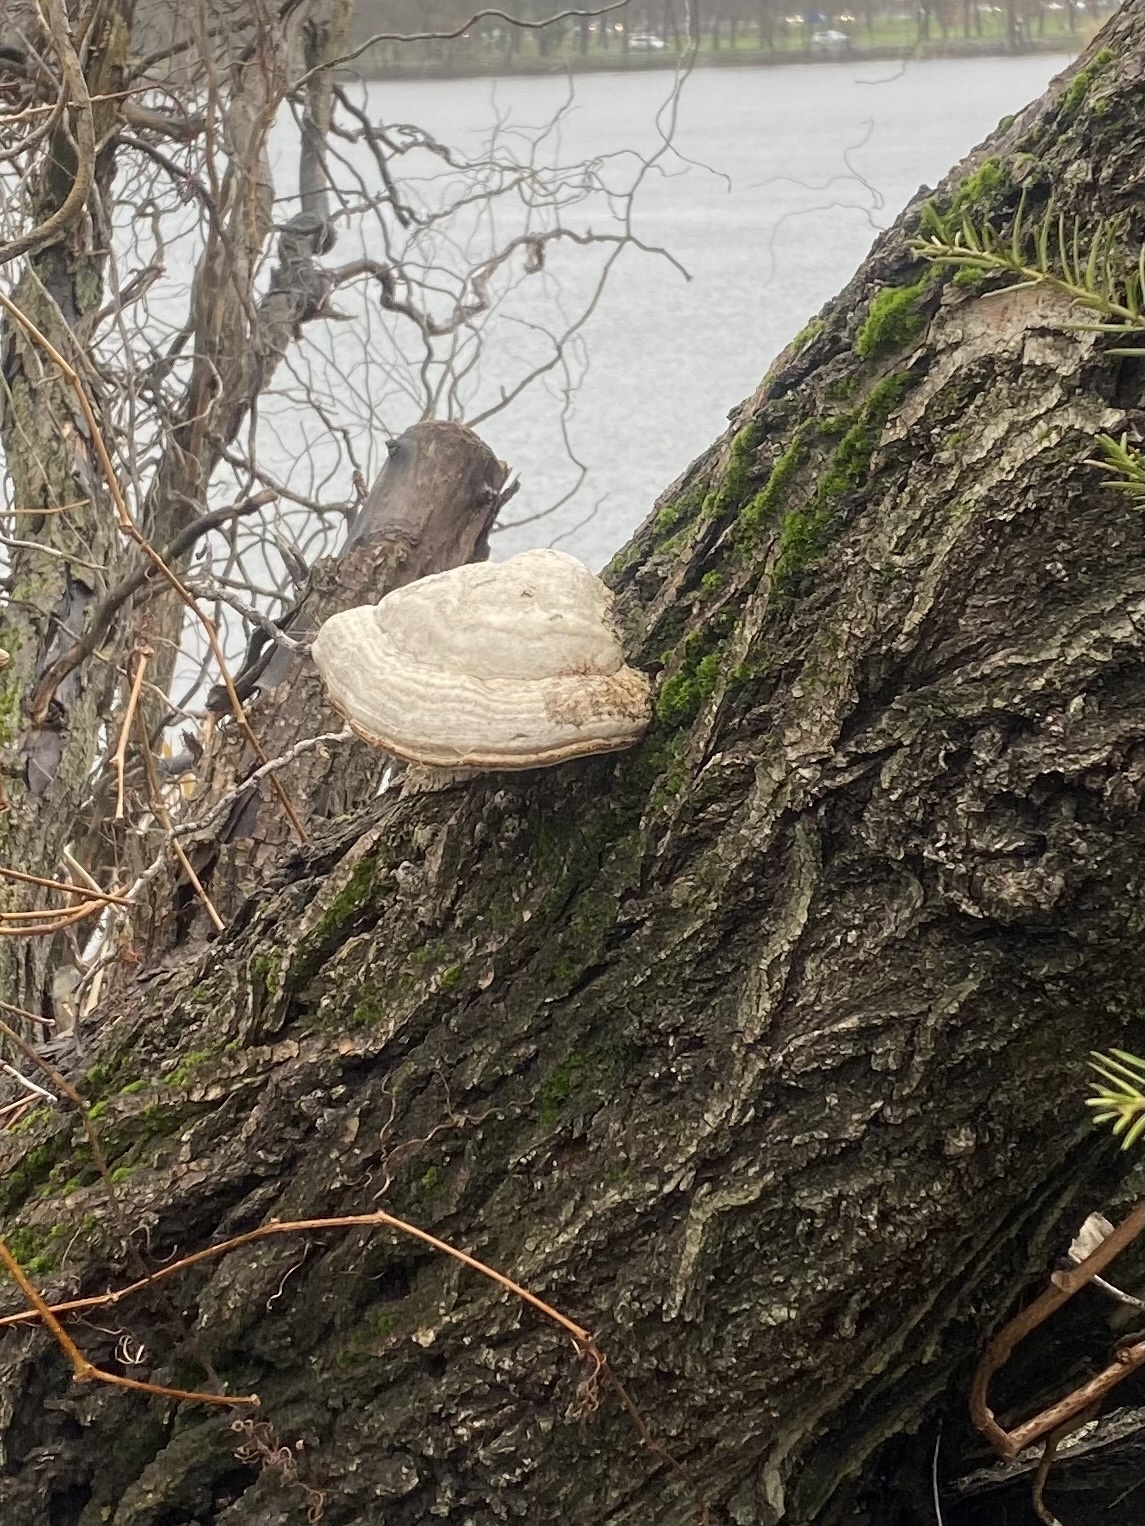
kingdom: Fungi
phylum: Basidiomycota
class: Agaricomycetes
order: Polyporales
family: Polyporaceae
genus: Fomes
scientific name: Fomes fomentarius
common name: Hoof fungus
